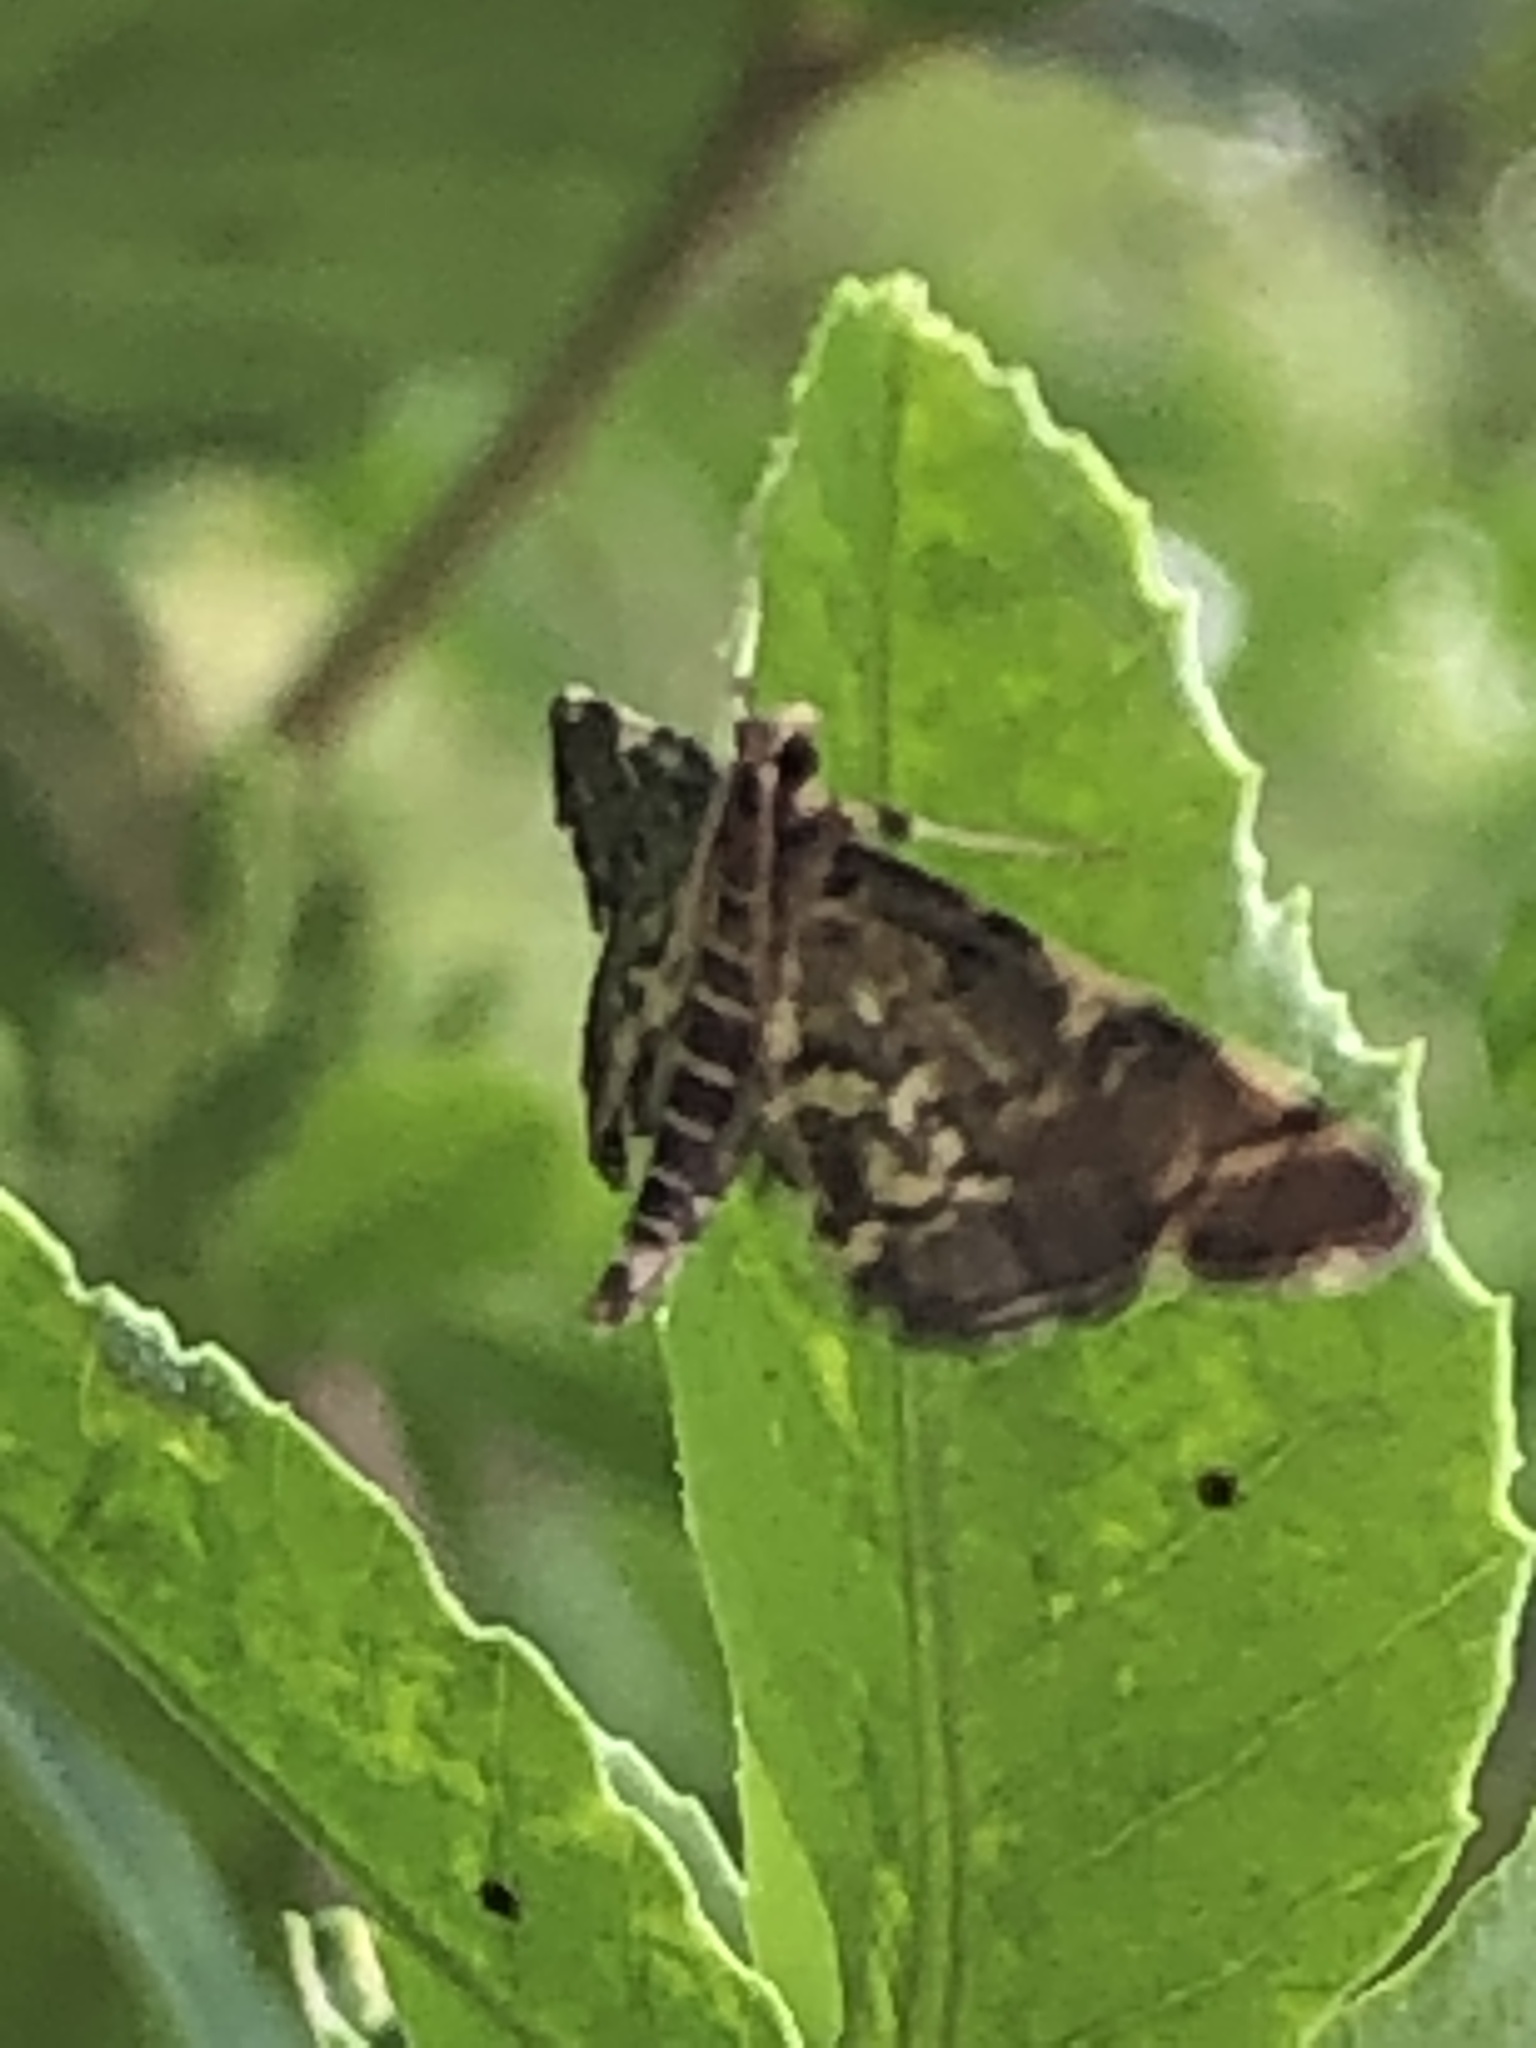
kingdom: Animalia
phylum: Arthropoda
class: Insecta
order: Lepidoptera
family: Crambidae
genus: Anageshna
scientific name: Anageshna primordialis
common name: Yellow-spotted webworm moth
